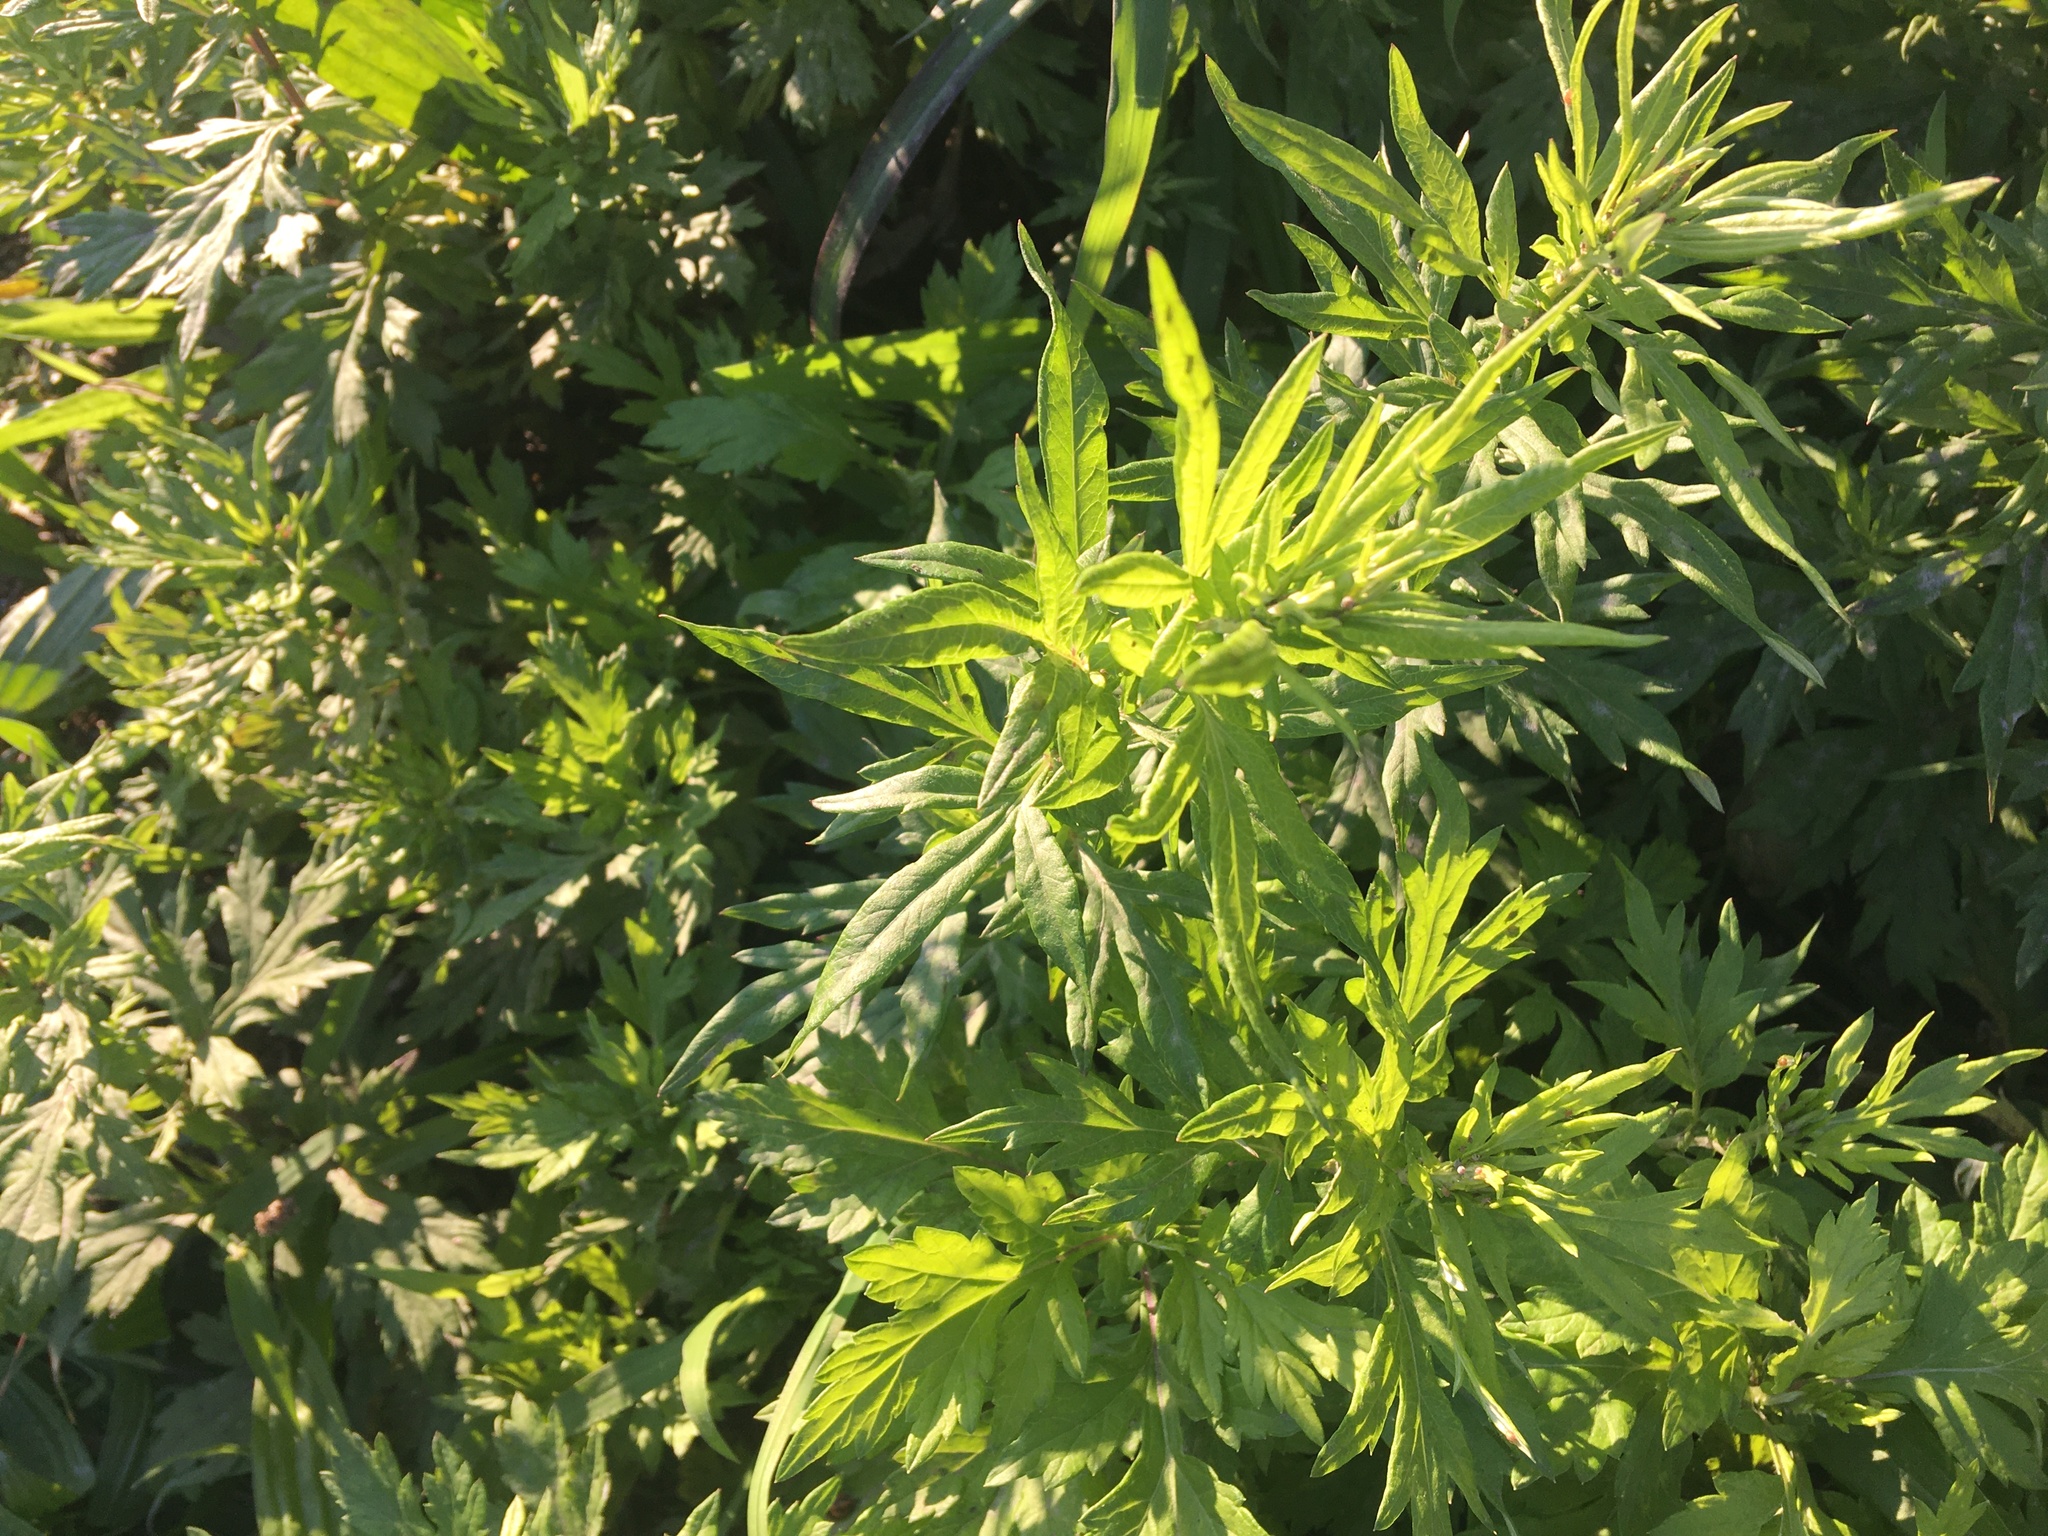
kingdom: Plantae
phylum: Tracheophyta
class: Magnoliopsida
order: Asterales
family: Asteraceae
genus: Artemisia
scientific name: Artemisia vulgaris
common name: Mugwort
